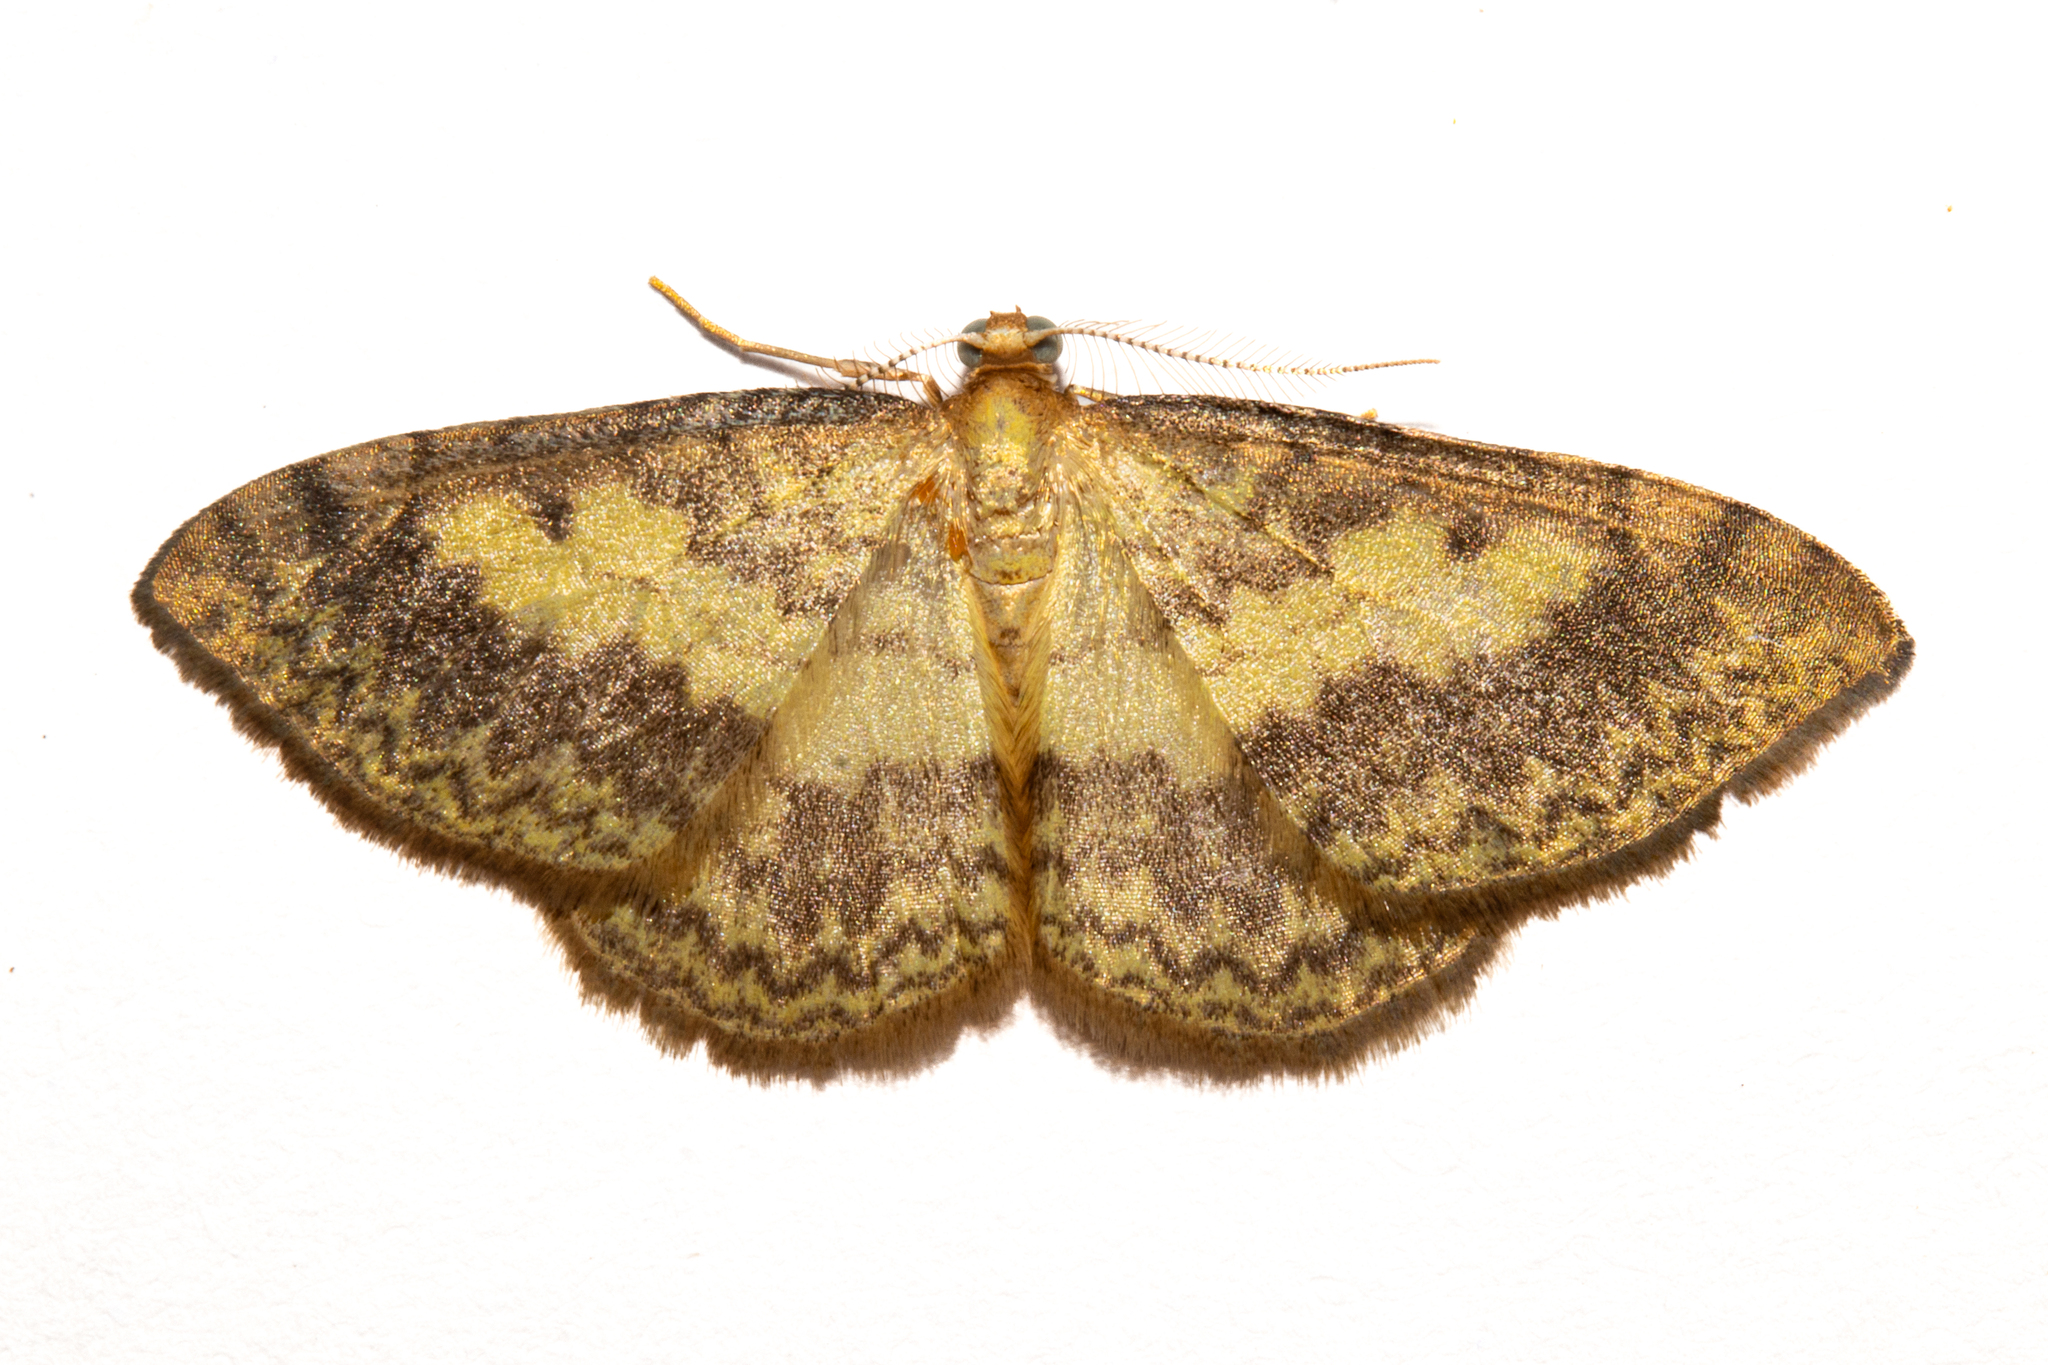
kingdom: Animalia
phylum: Arthropoda
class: Insecta
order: Lepidoptera
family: Geometridae
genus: Epiphryne
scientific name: Epiphryne undosata
